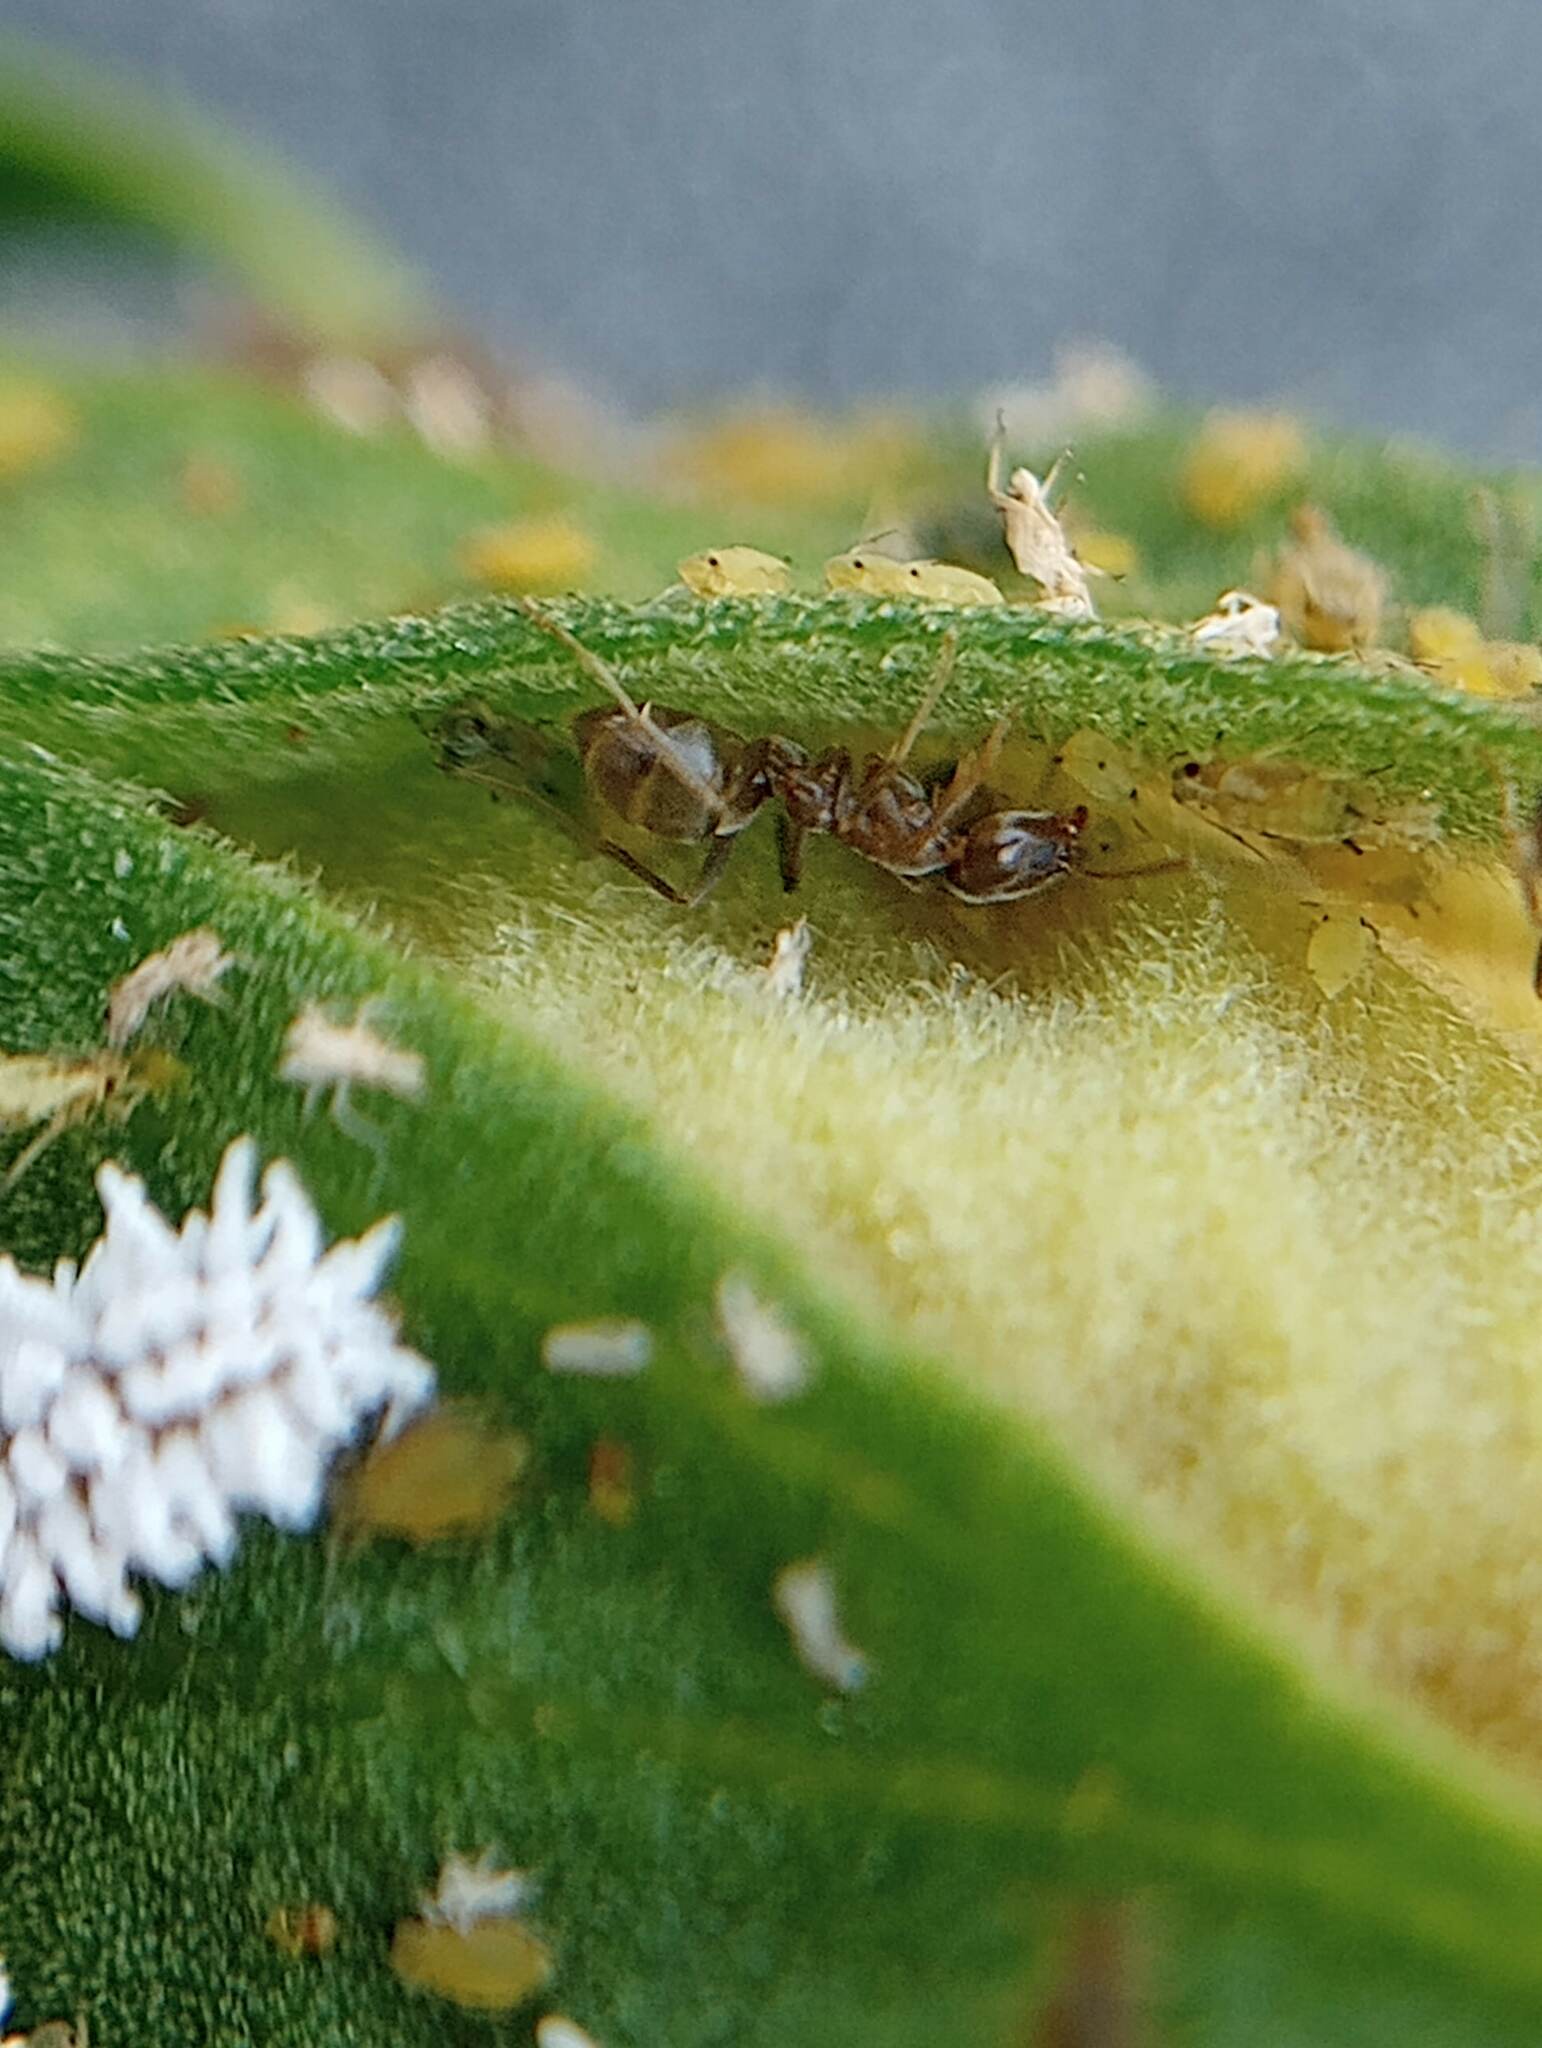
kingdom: Animalia
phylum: Arthropoda
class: Insecta
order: Hymenoptera
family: Formicidae
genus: Linepithema
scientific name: Linepithema humile
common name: Argentine ant
